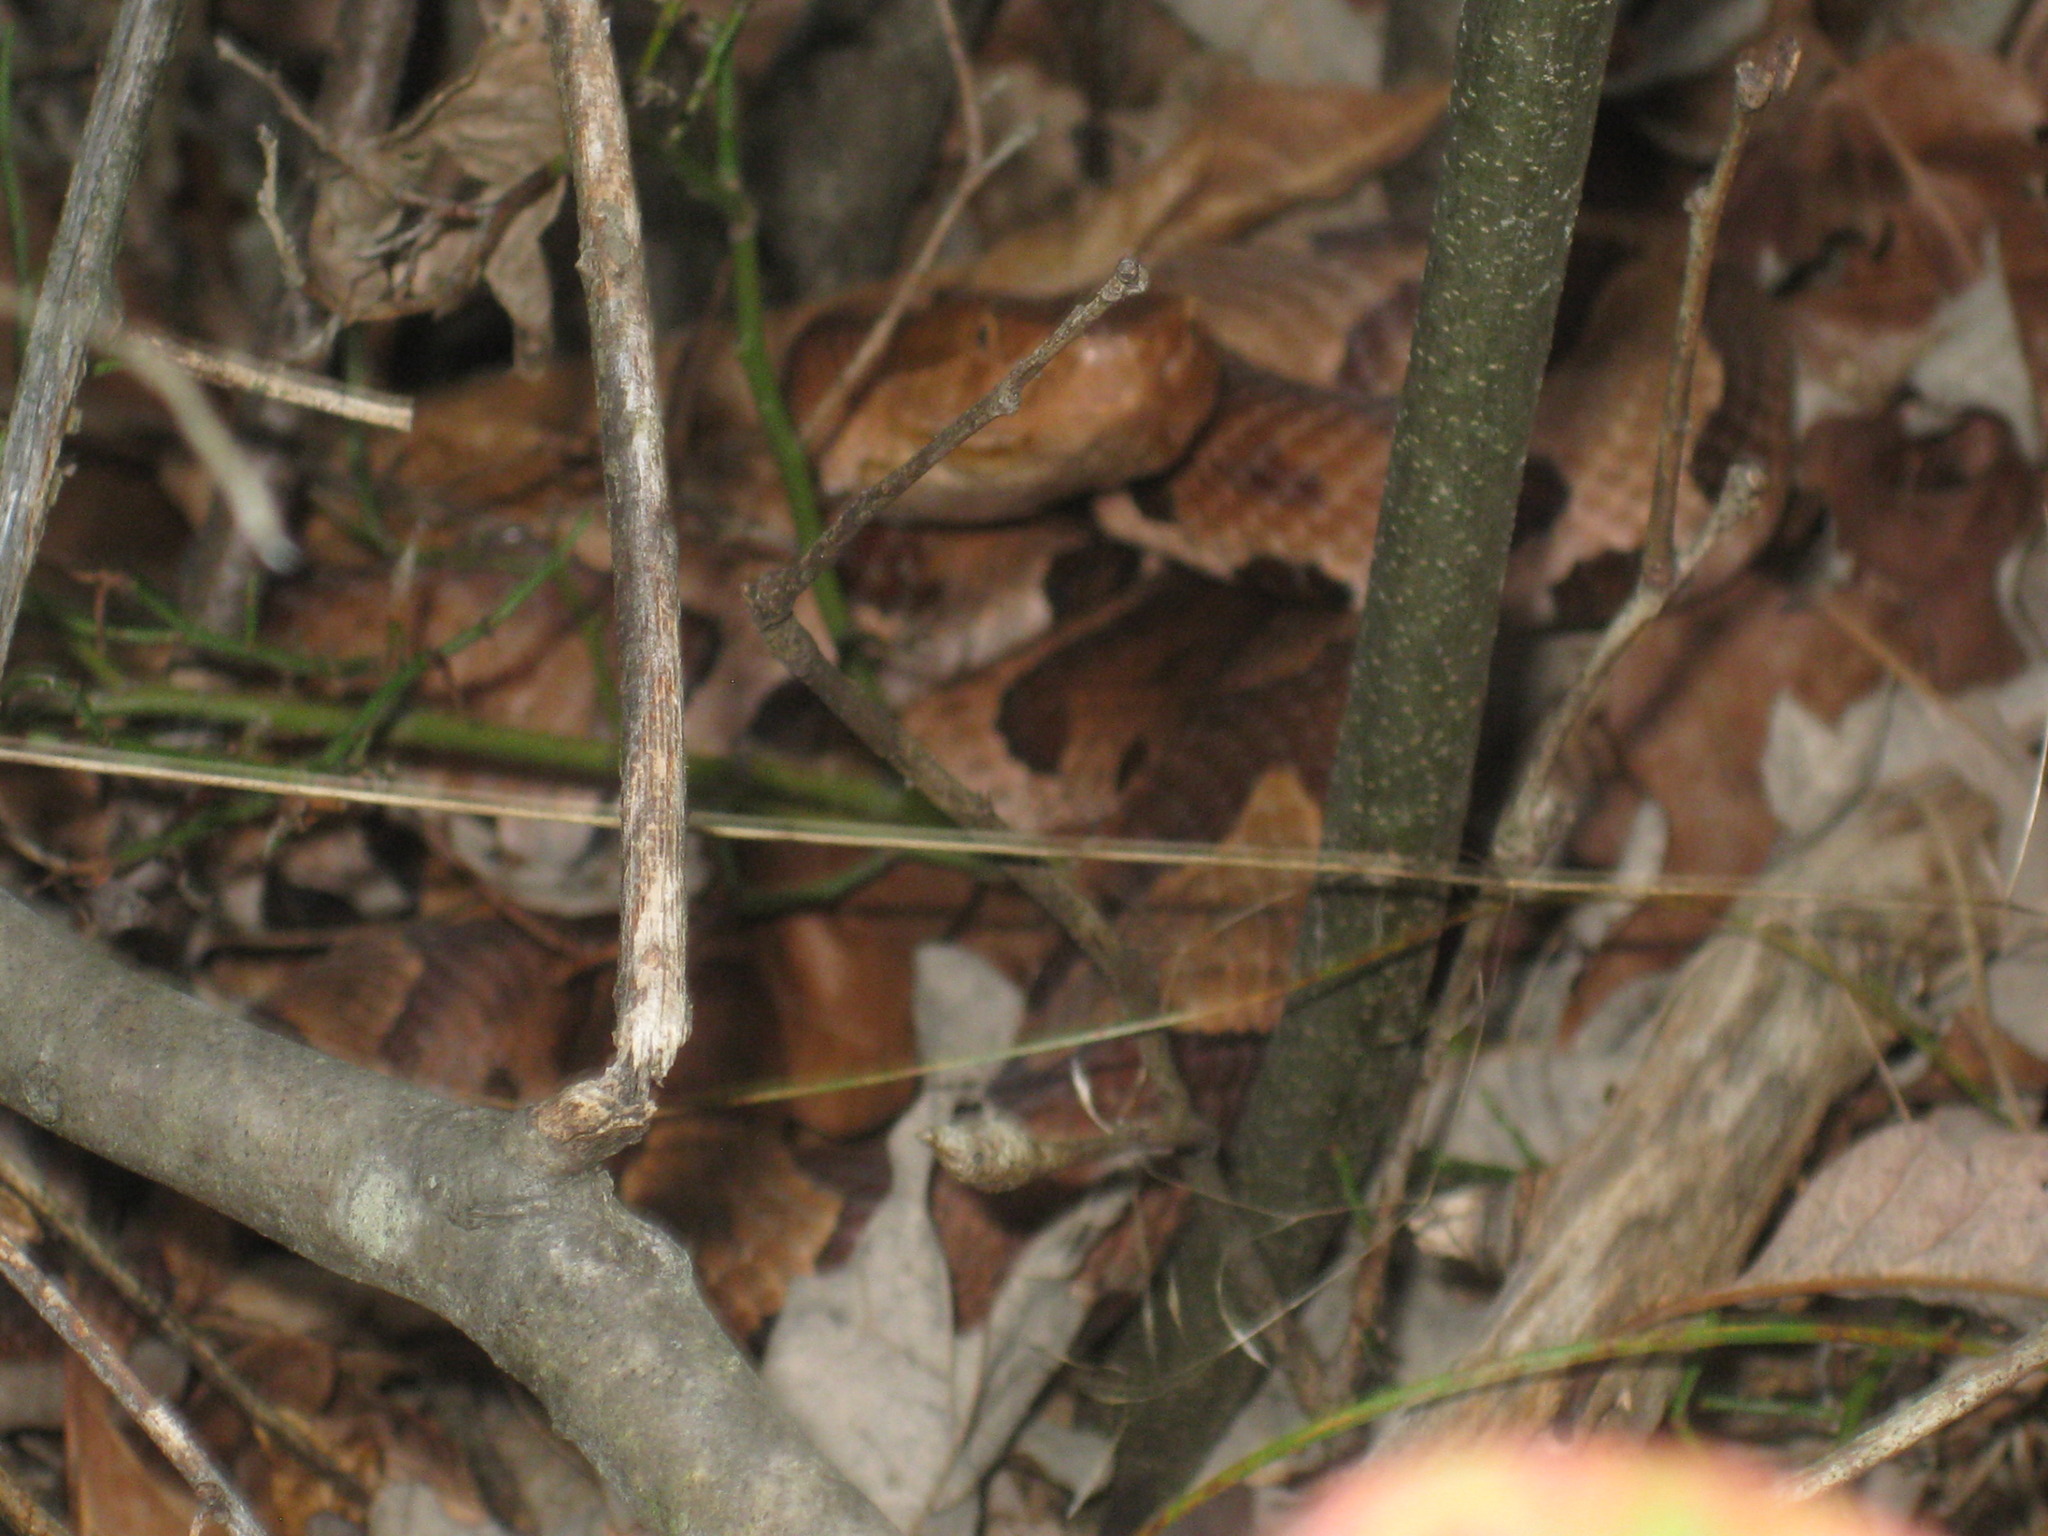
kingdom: Animalia
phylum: Chordata
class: Squamata
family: Viperidae
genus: Agkistrodon
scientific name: Agkistrodon contortrix
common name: Northern copperhead
